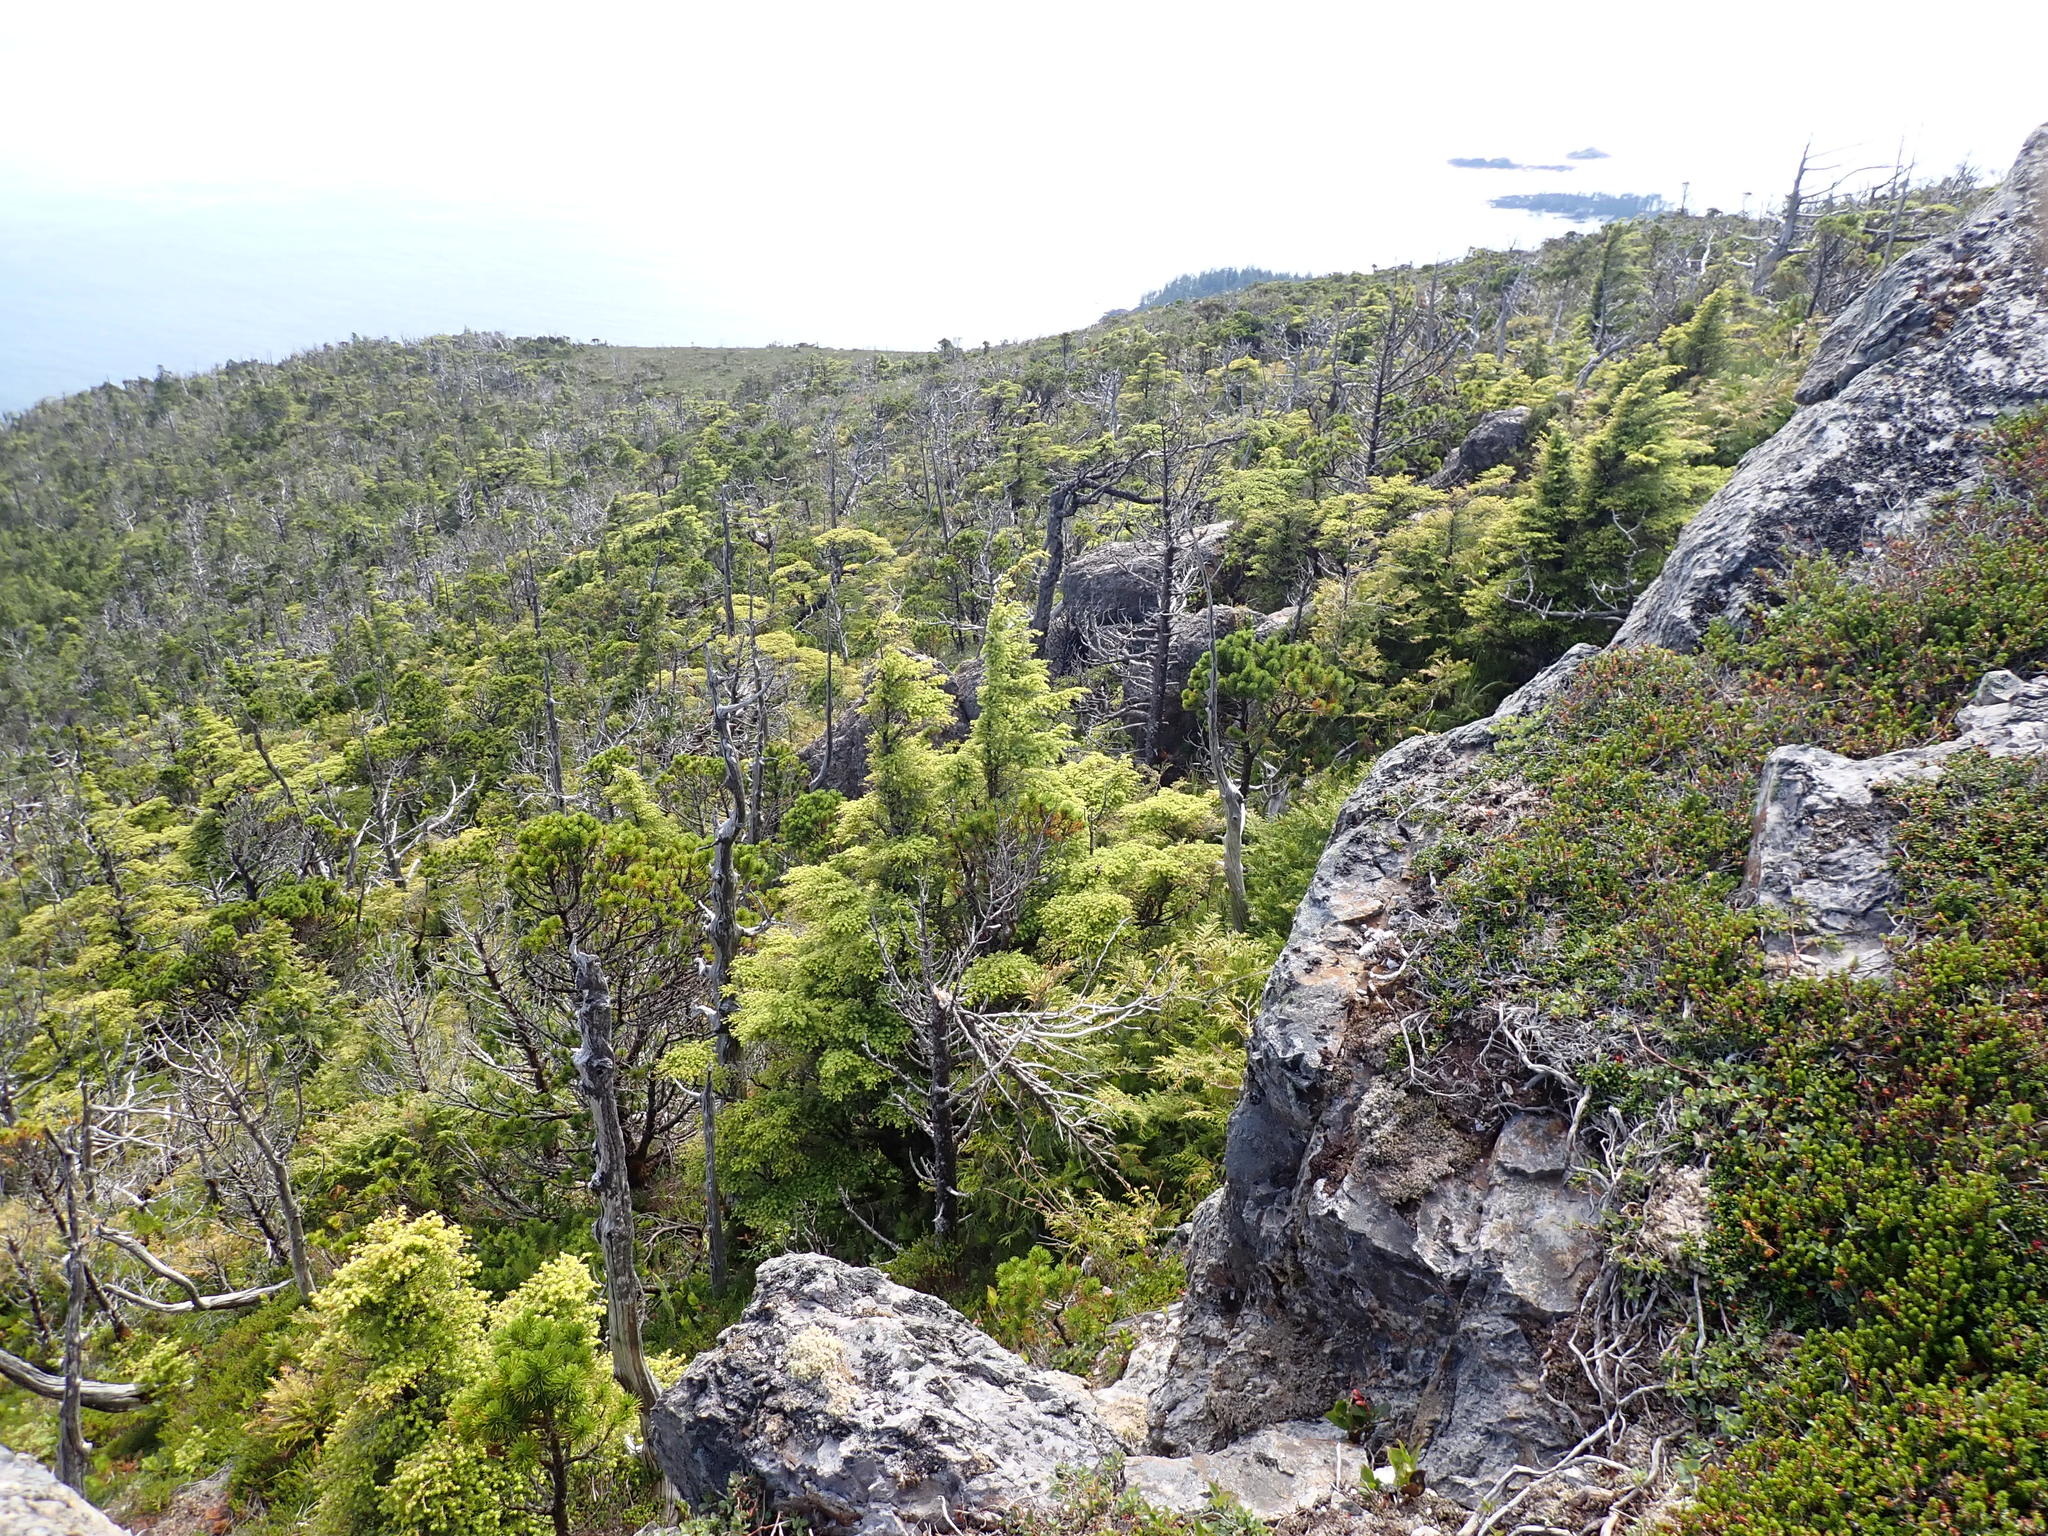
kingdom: Plantae
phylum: Tracheophyta
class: Pinopsida
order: Pinales
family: Pinaceae
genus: Tsuga
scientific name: Tsuga mertensiana
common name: Mountain hemlock
